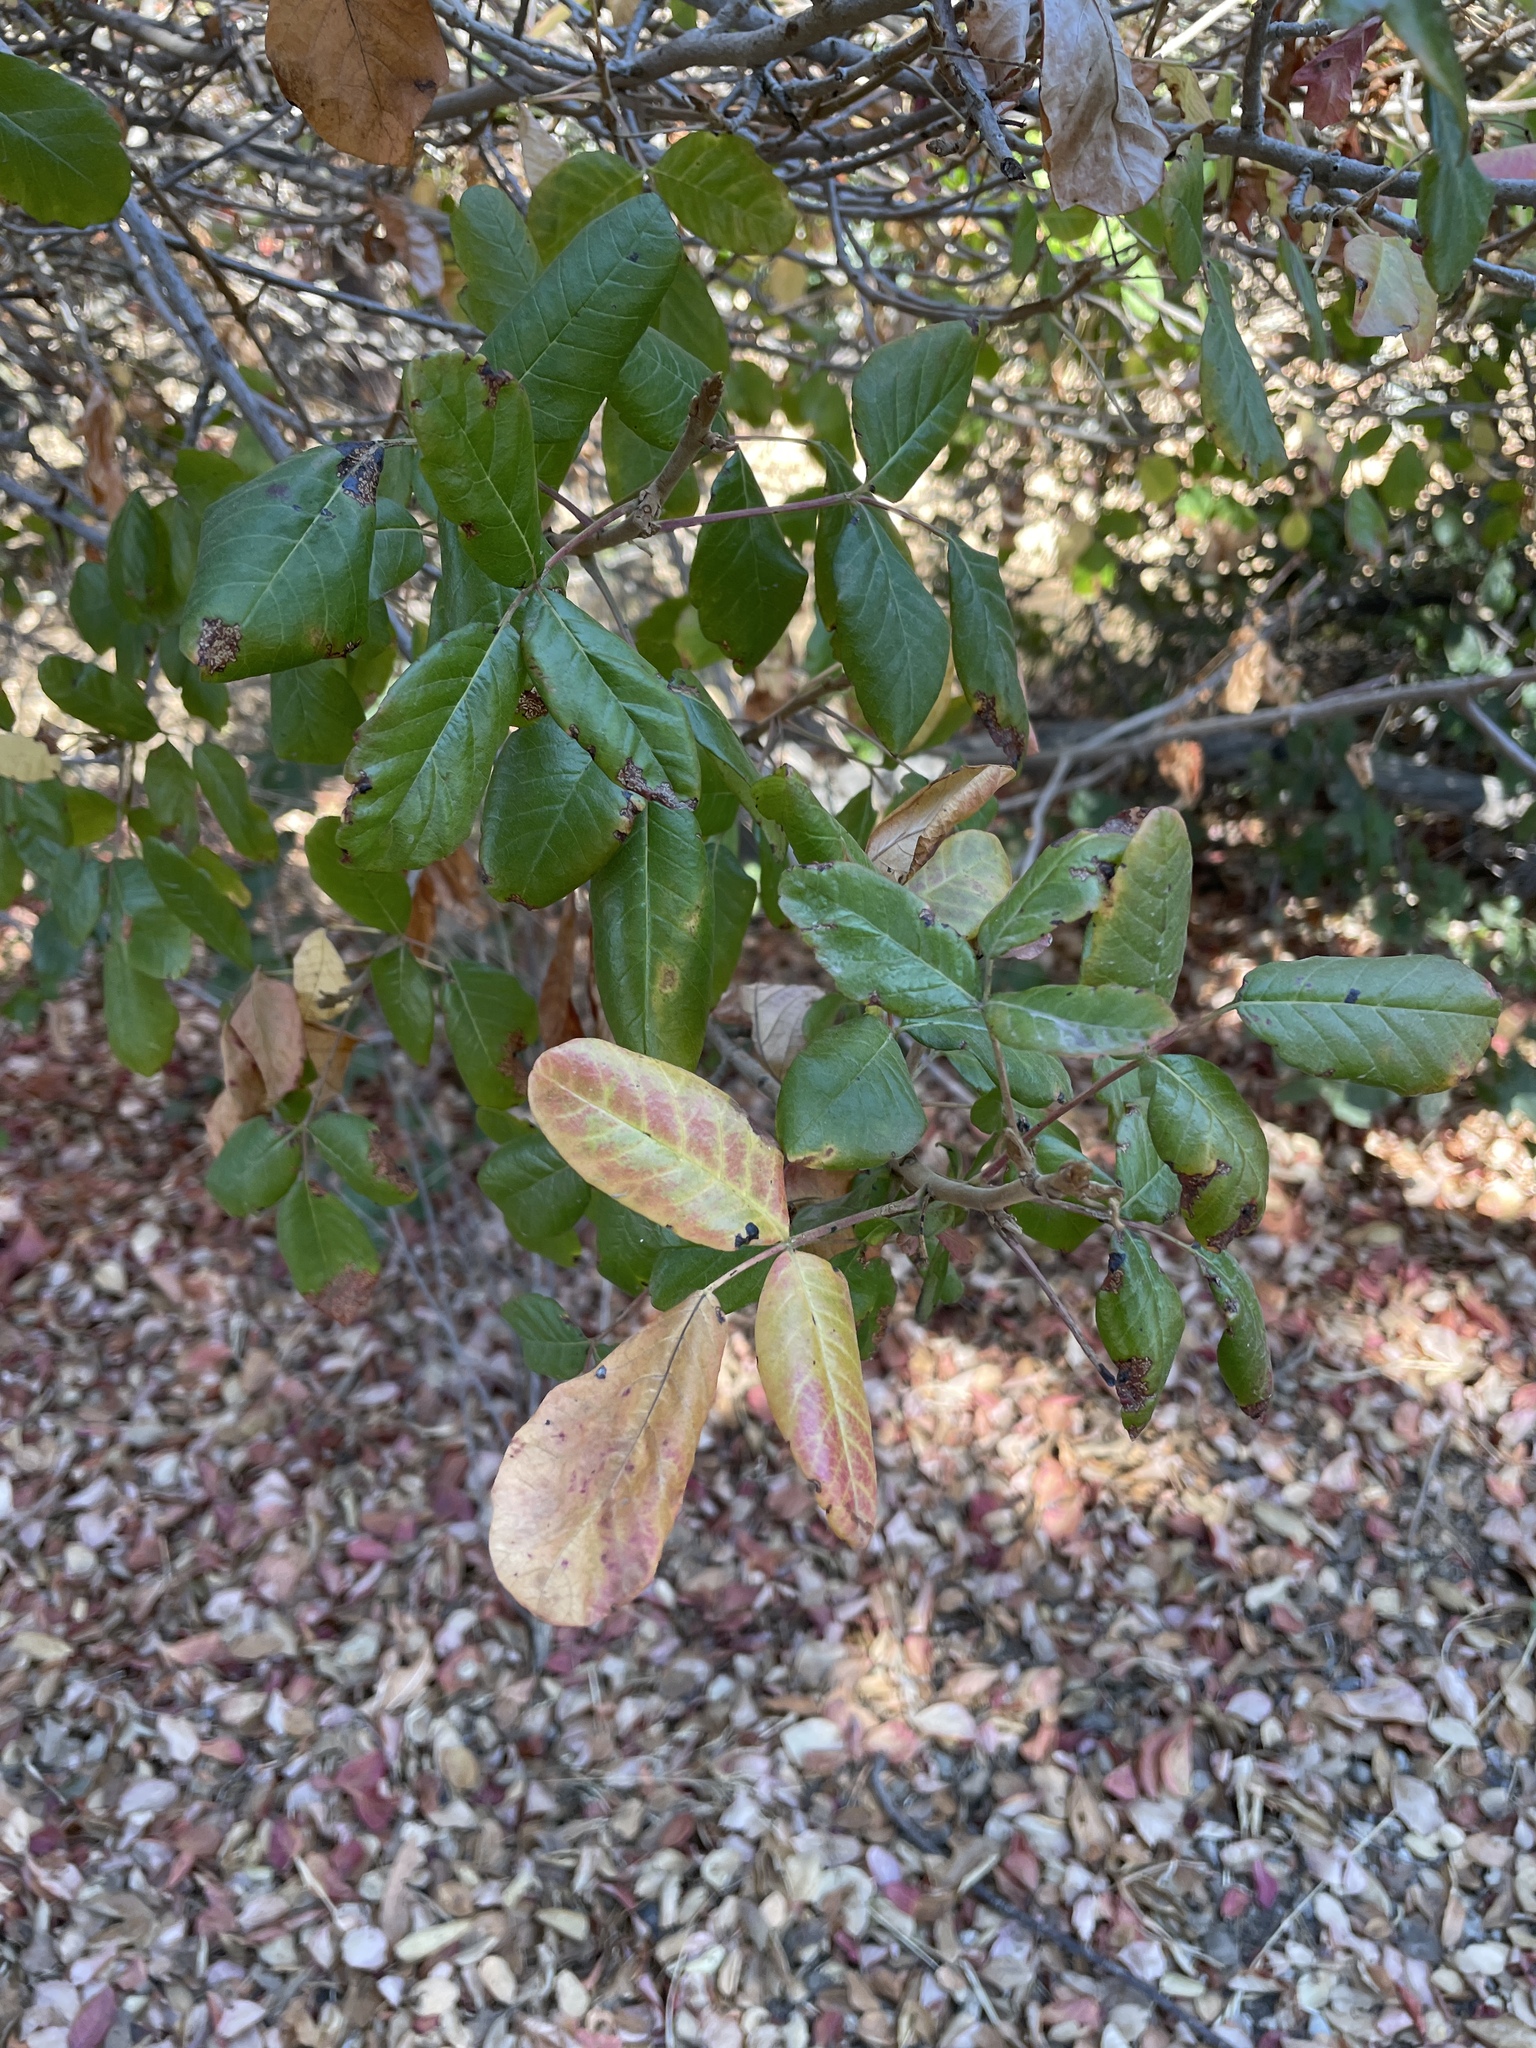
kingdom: Plantae
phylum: Tracheophyta
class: Magnoliopsida
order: Sapindales
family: Anacardiaceae
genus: Toxicodendron
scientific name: Toxicodendron diversilobum
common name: Pacific poison-oak
